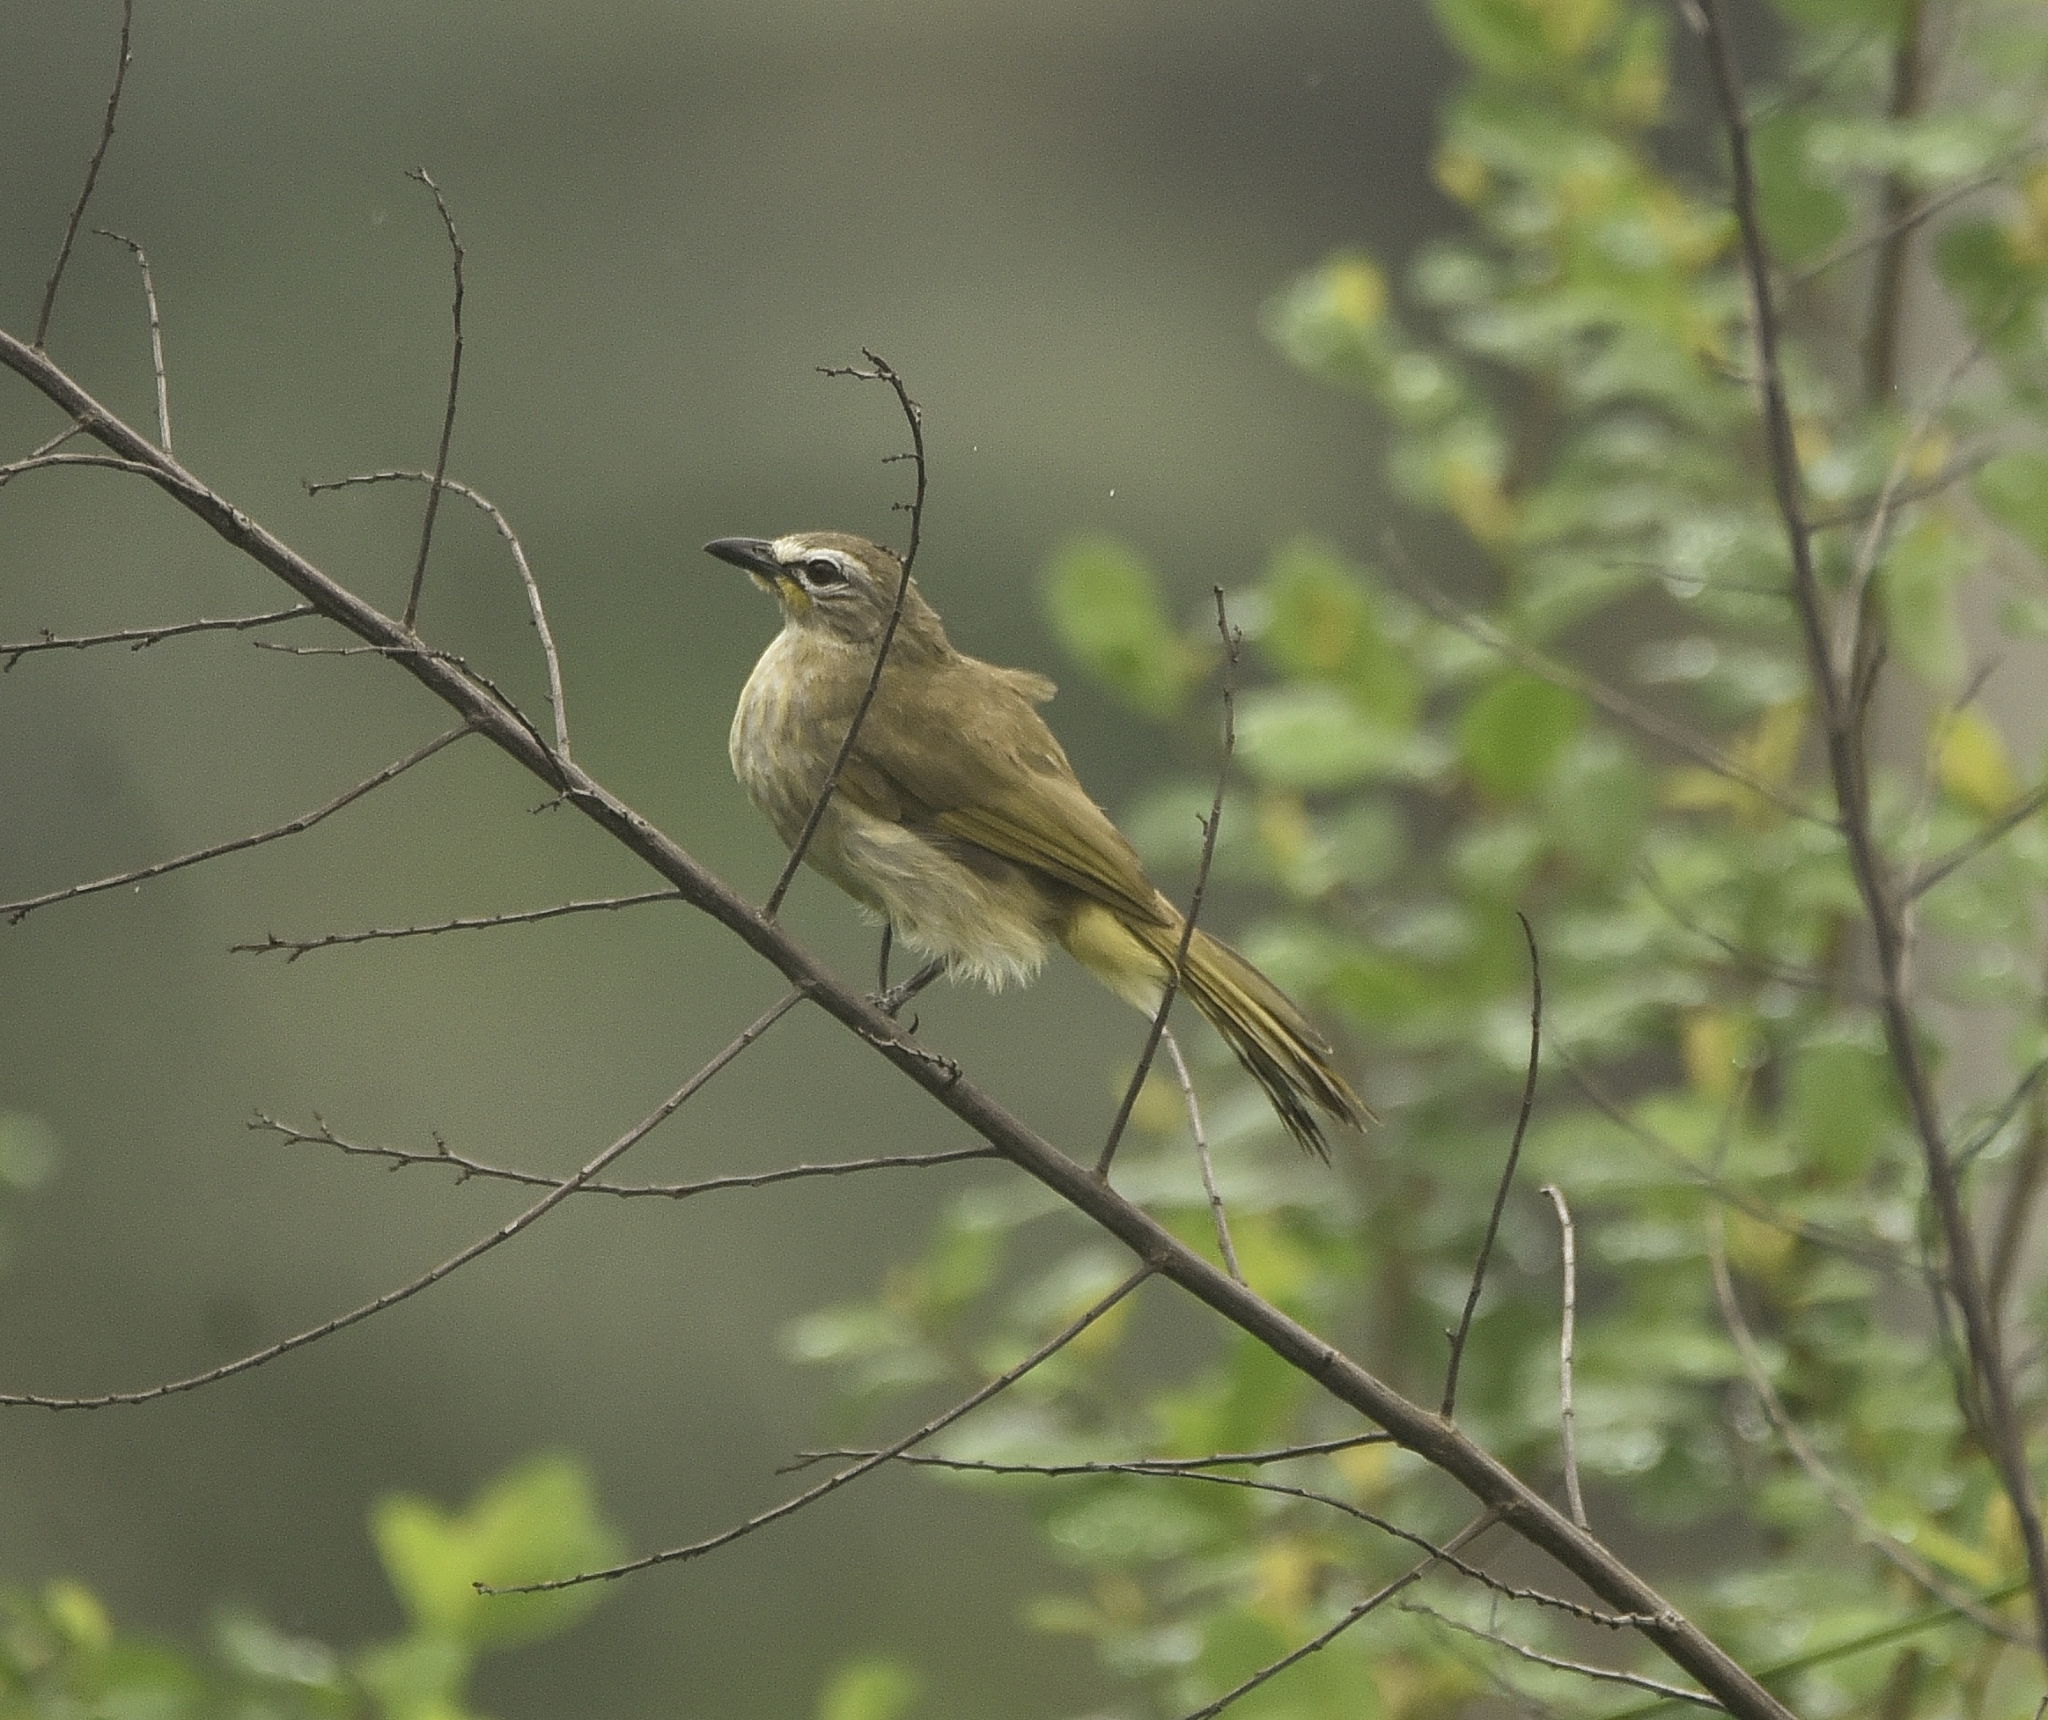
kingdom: Animalia
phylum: Chordata
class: Aves
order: Passeriformes
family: Pycnonotidae
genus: Pycnonotus
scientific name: Pycnonotus luteolus
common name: White-browed bulbul
